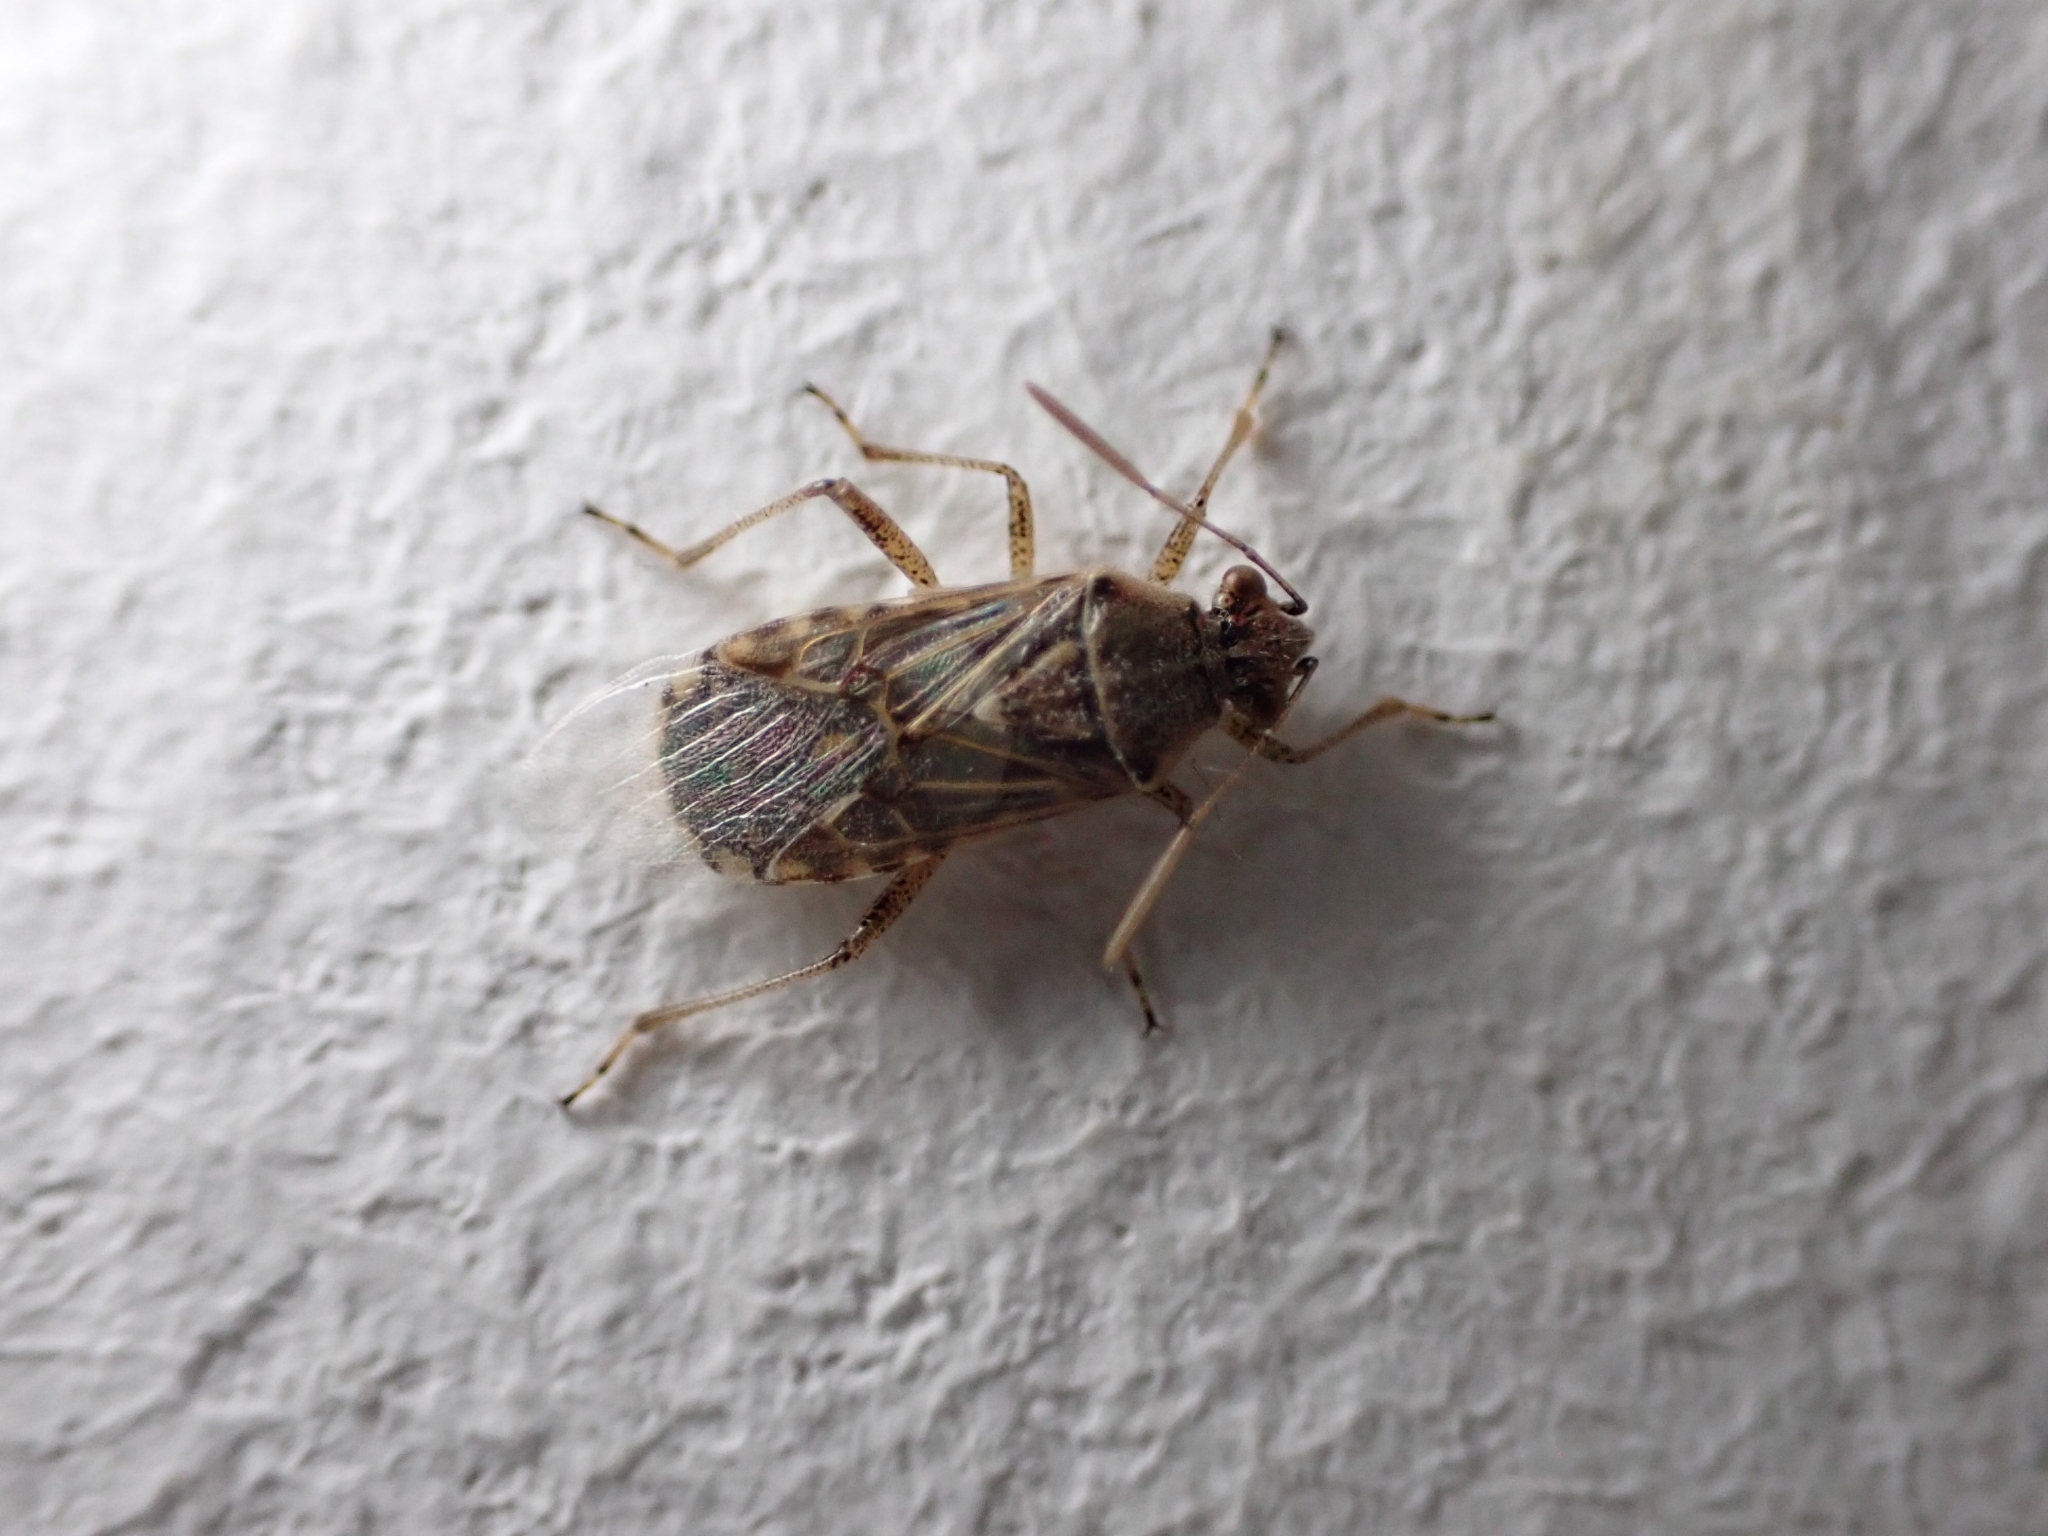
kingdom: Animalia
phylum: Arthropoda
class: Insecta
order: Hemiptera
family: Rhopalidae
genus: Liorhyssus
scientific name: Liorhyssus hyalinus
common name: Scentless plant bug
